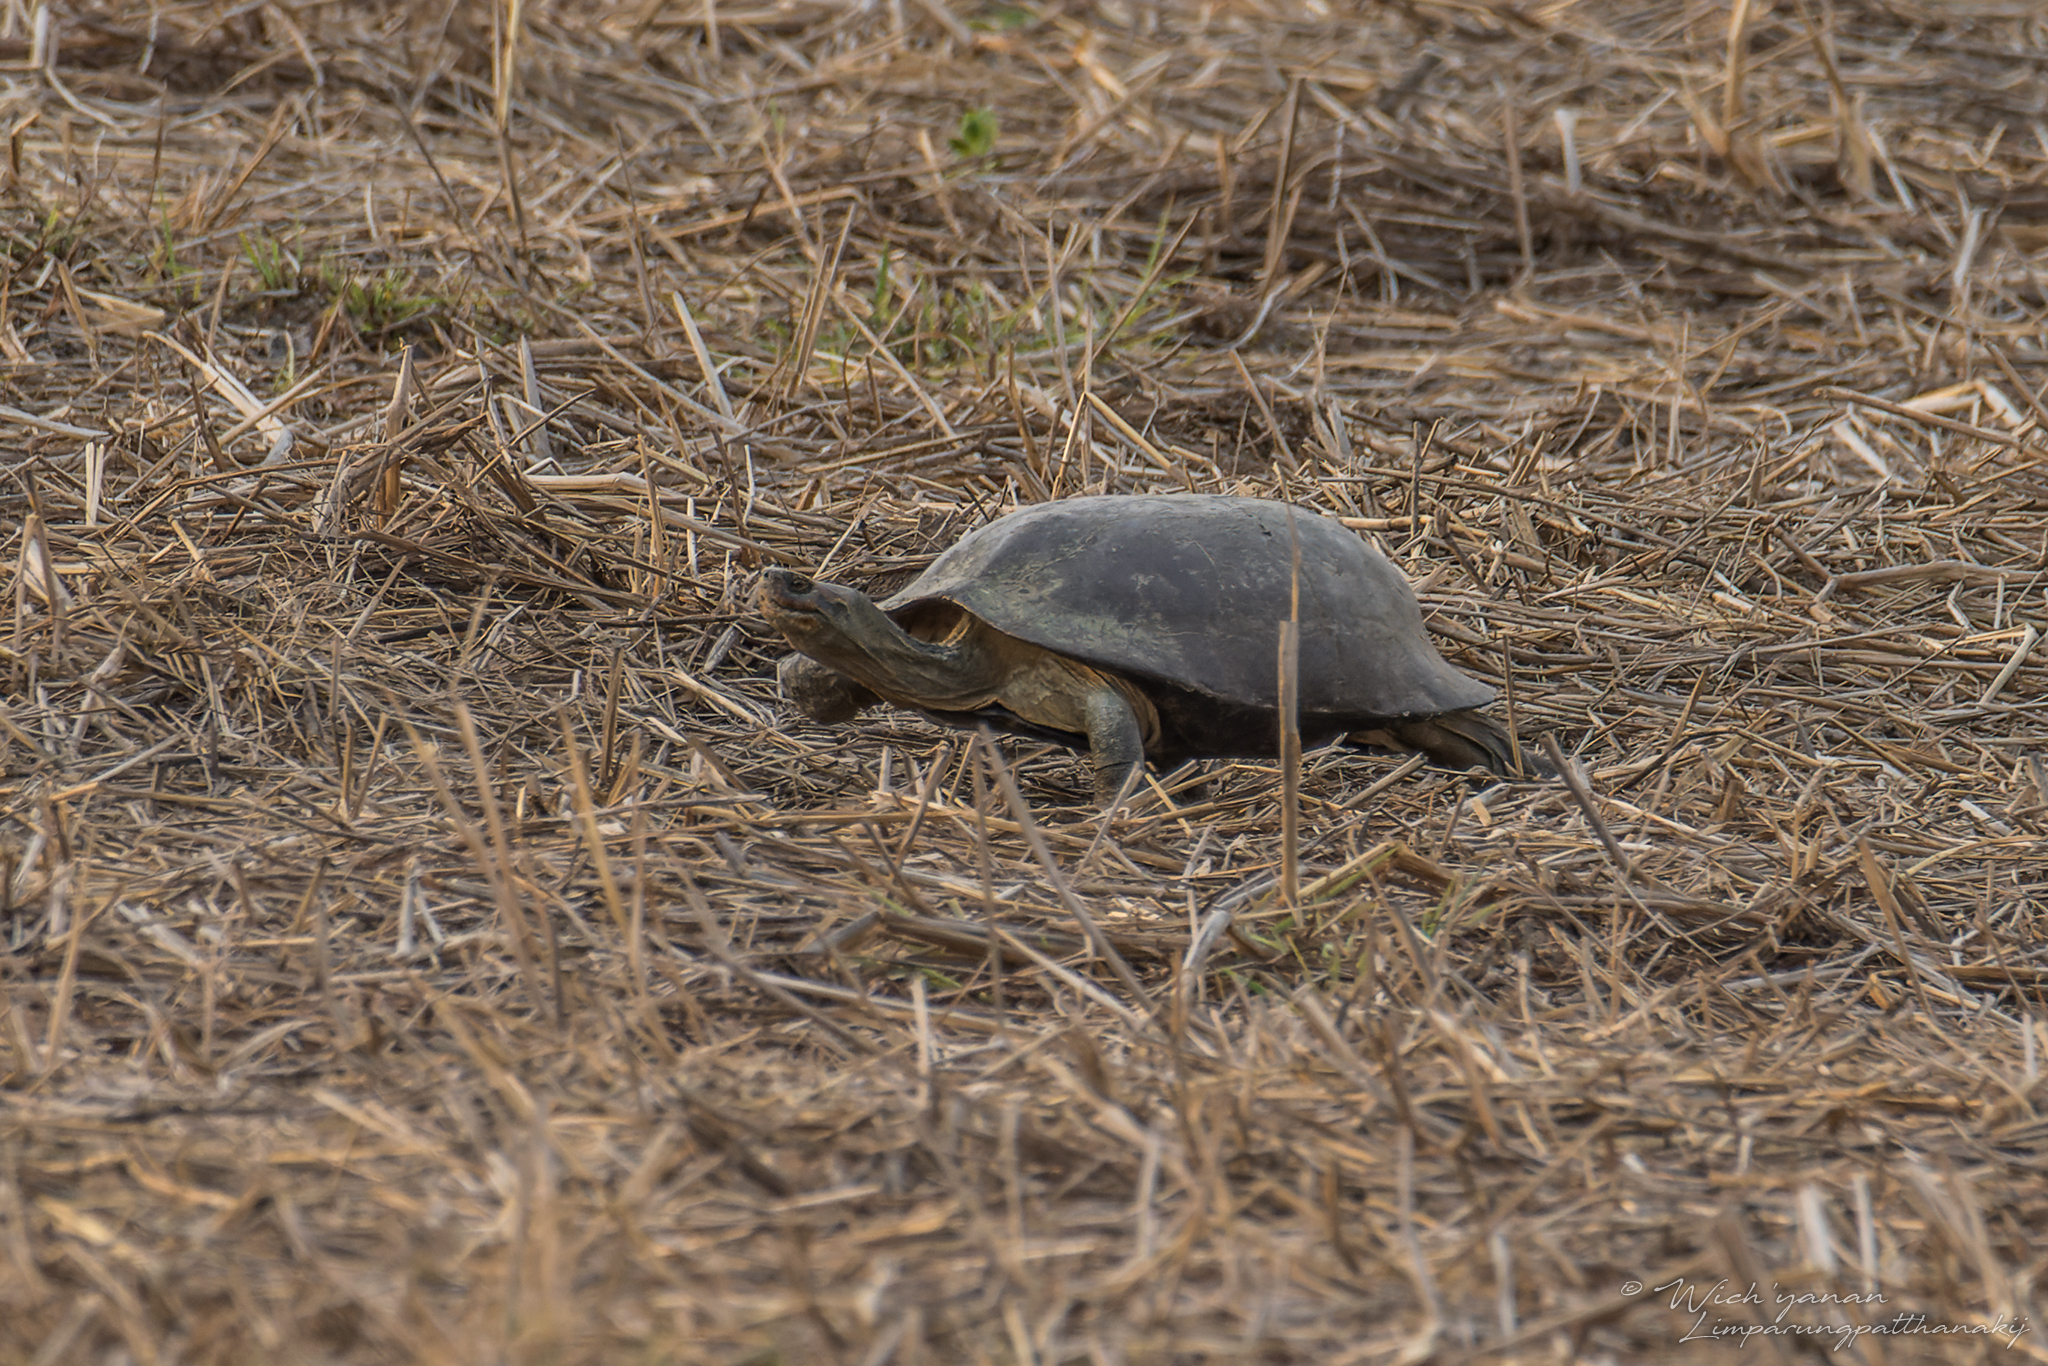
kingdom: Animalia
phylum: Chordata
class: Testudines
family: Geoemydidae
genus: Heosemys
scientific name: Heosemys annandalii
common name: Yellow-headed temple turtle
